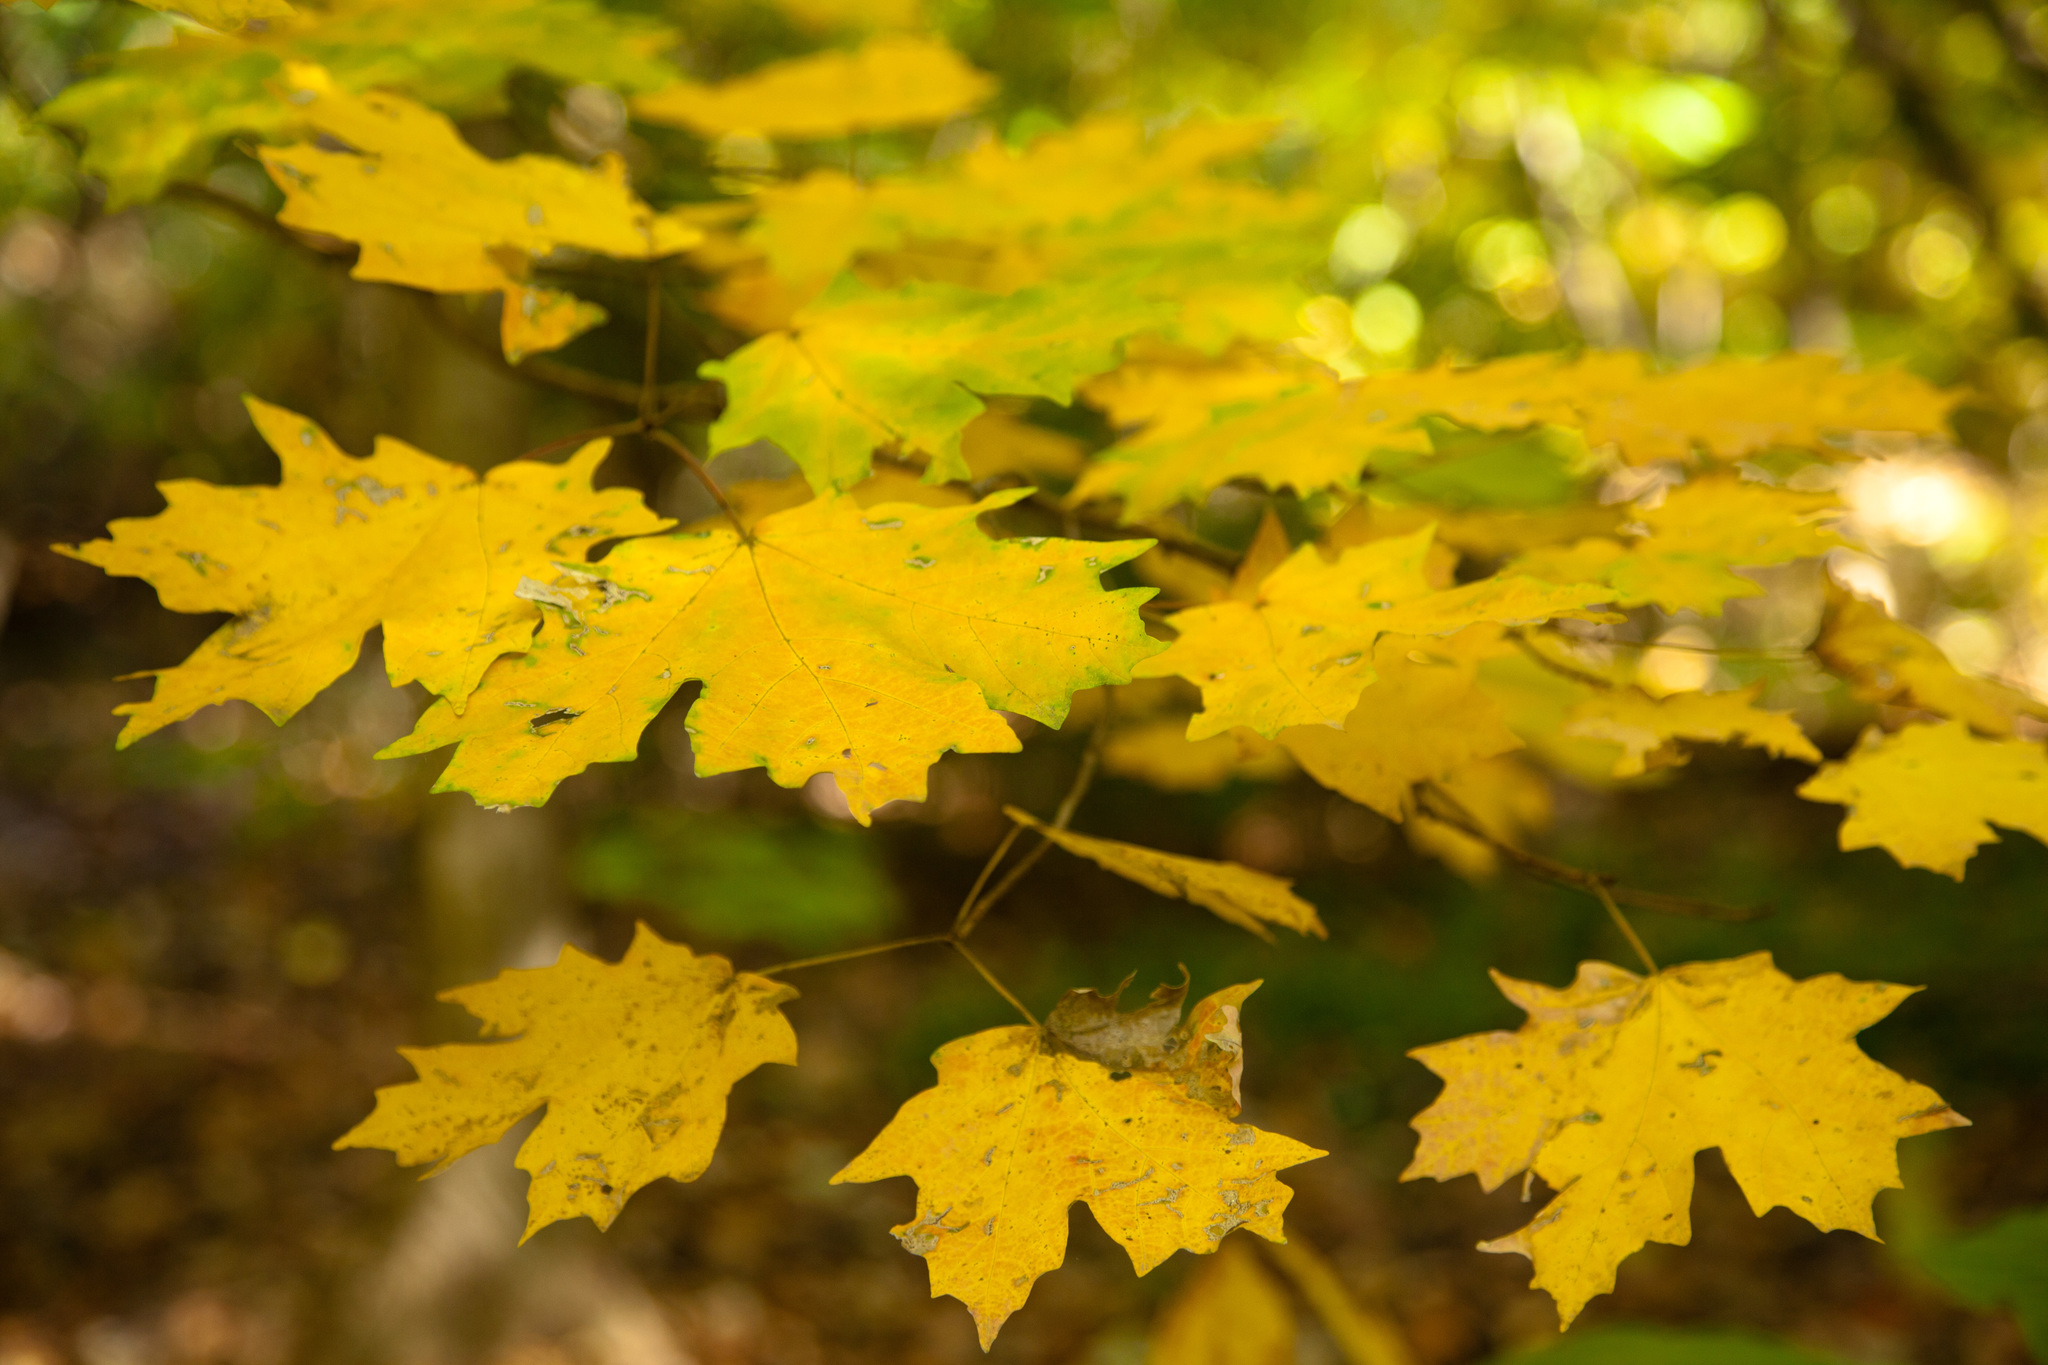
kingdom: Plantae
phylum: Tracheophyta
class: Magnoliopsida
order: Sapindales
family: Sapindaceae
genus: Acer
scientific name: Acer saccharum
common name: Sugar maple
